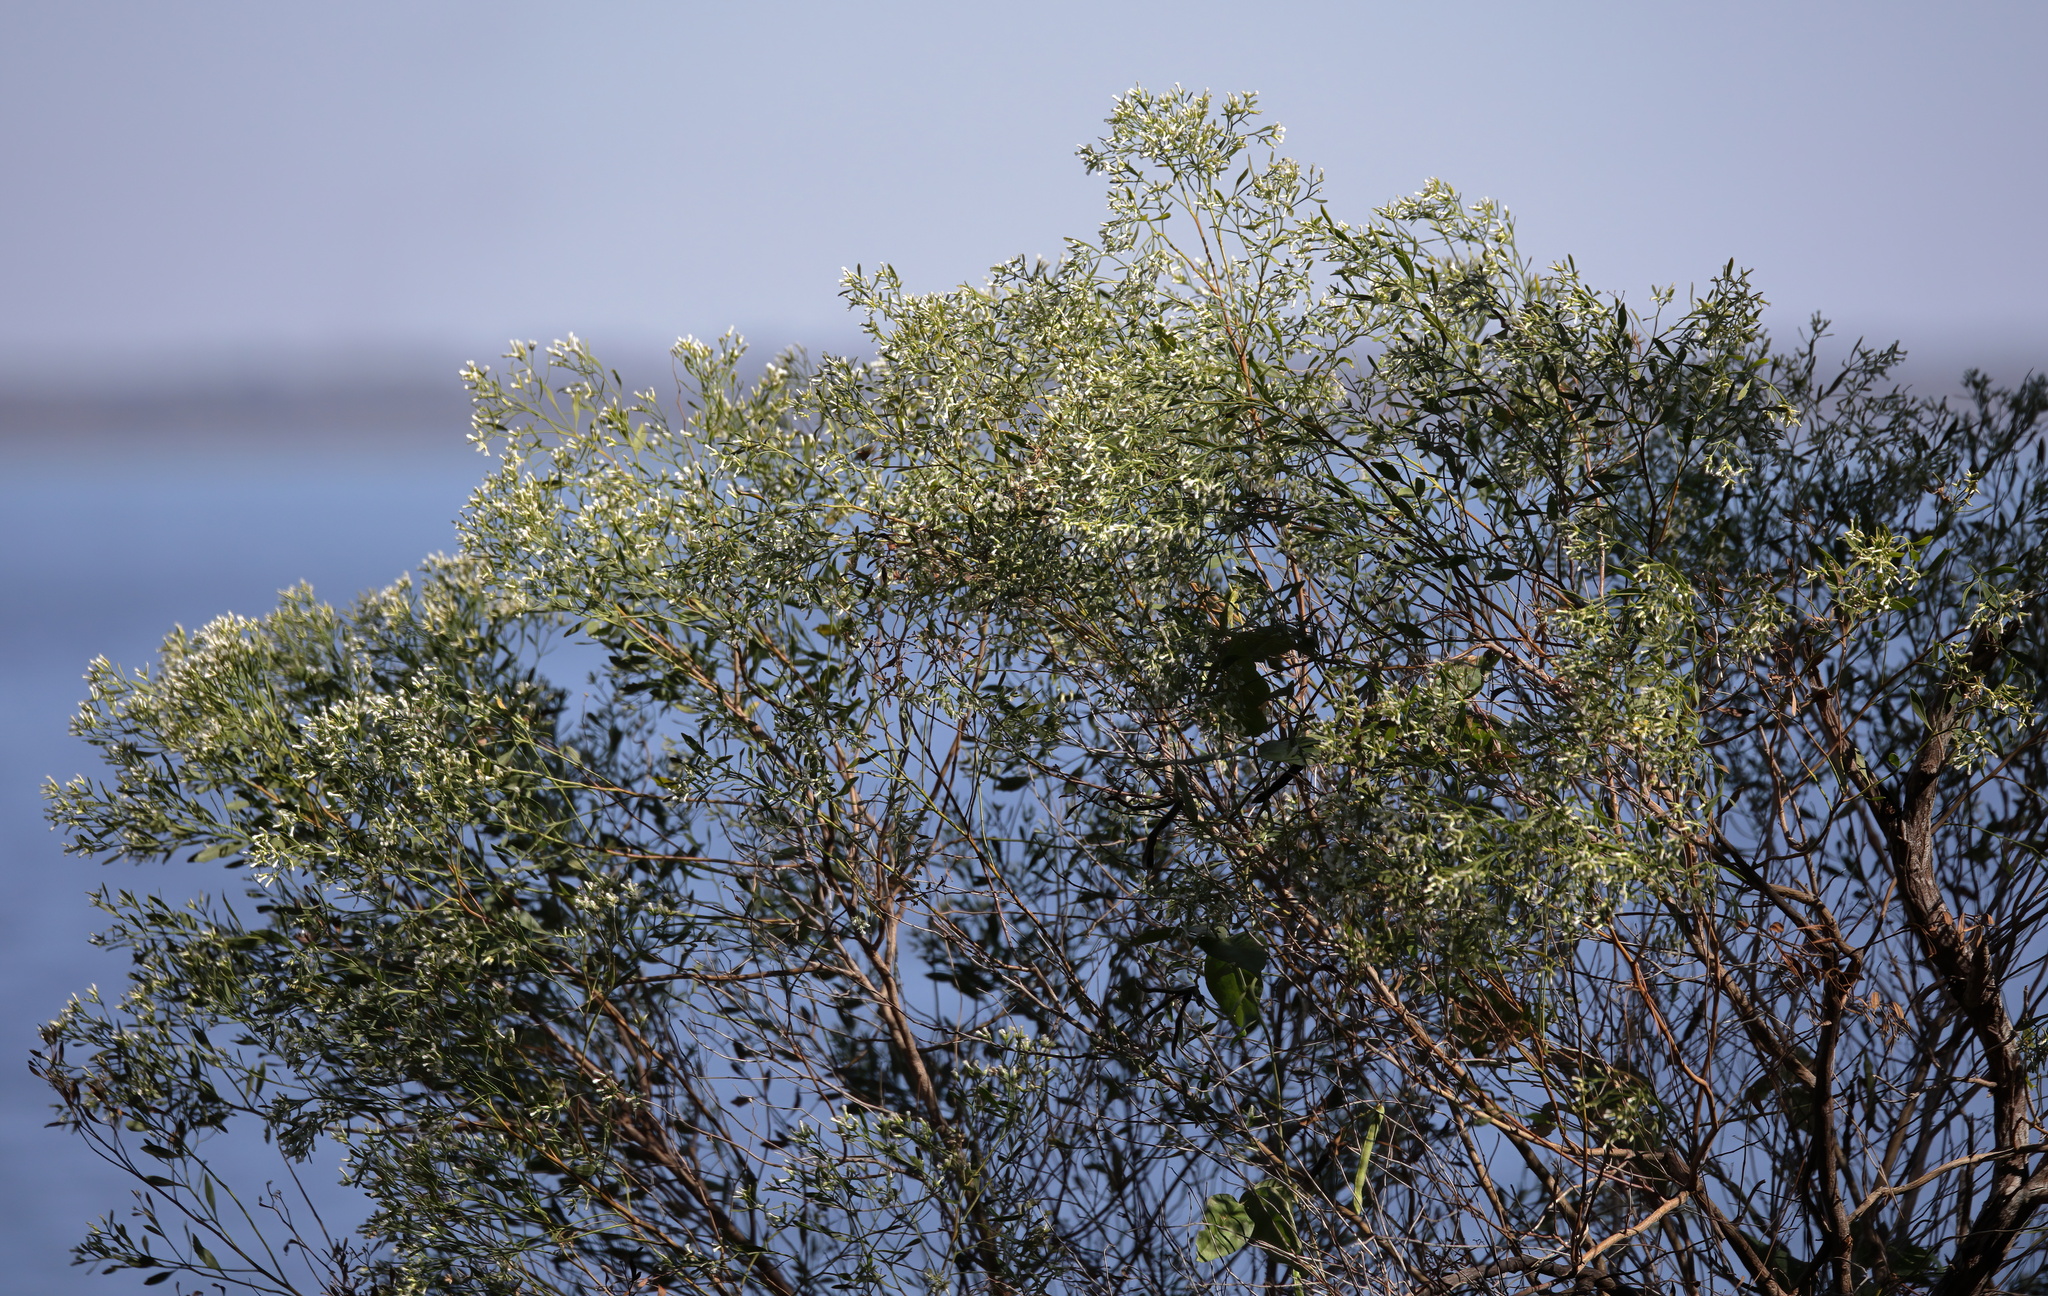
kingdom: Plantae
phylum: Tracheophyta
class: Magnoliopsida
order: Asterales
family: Asteraceae
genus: Baccharis
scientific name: Baccharis halimifolia
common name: Eastern baccharis
